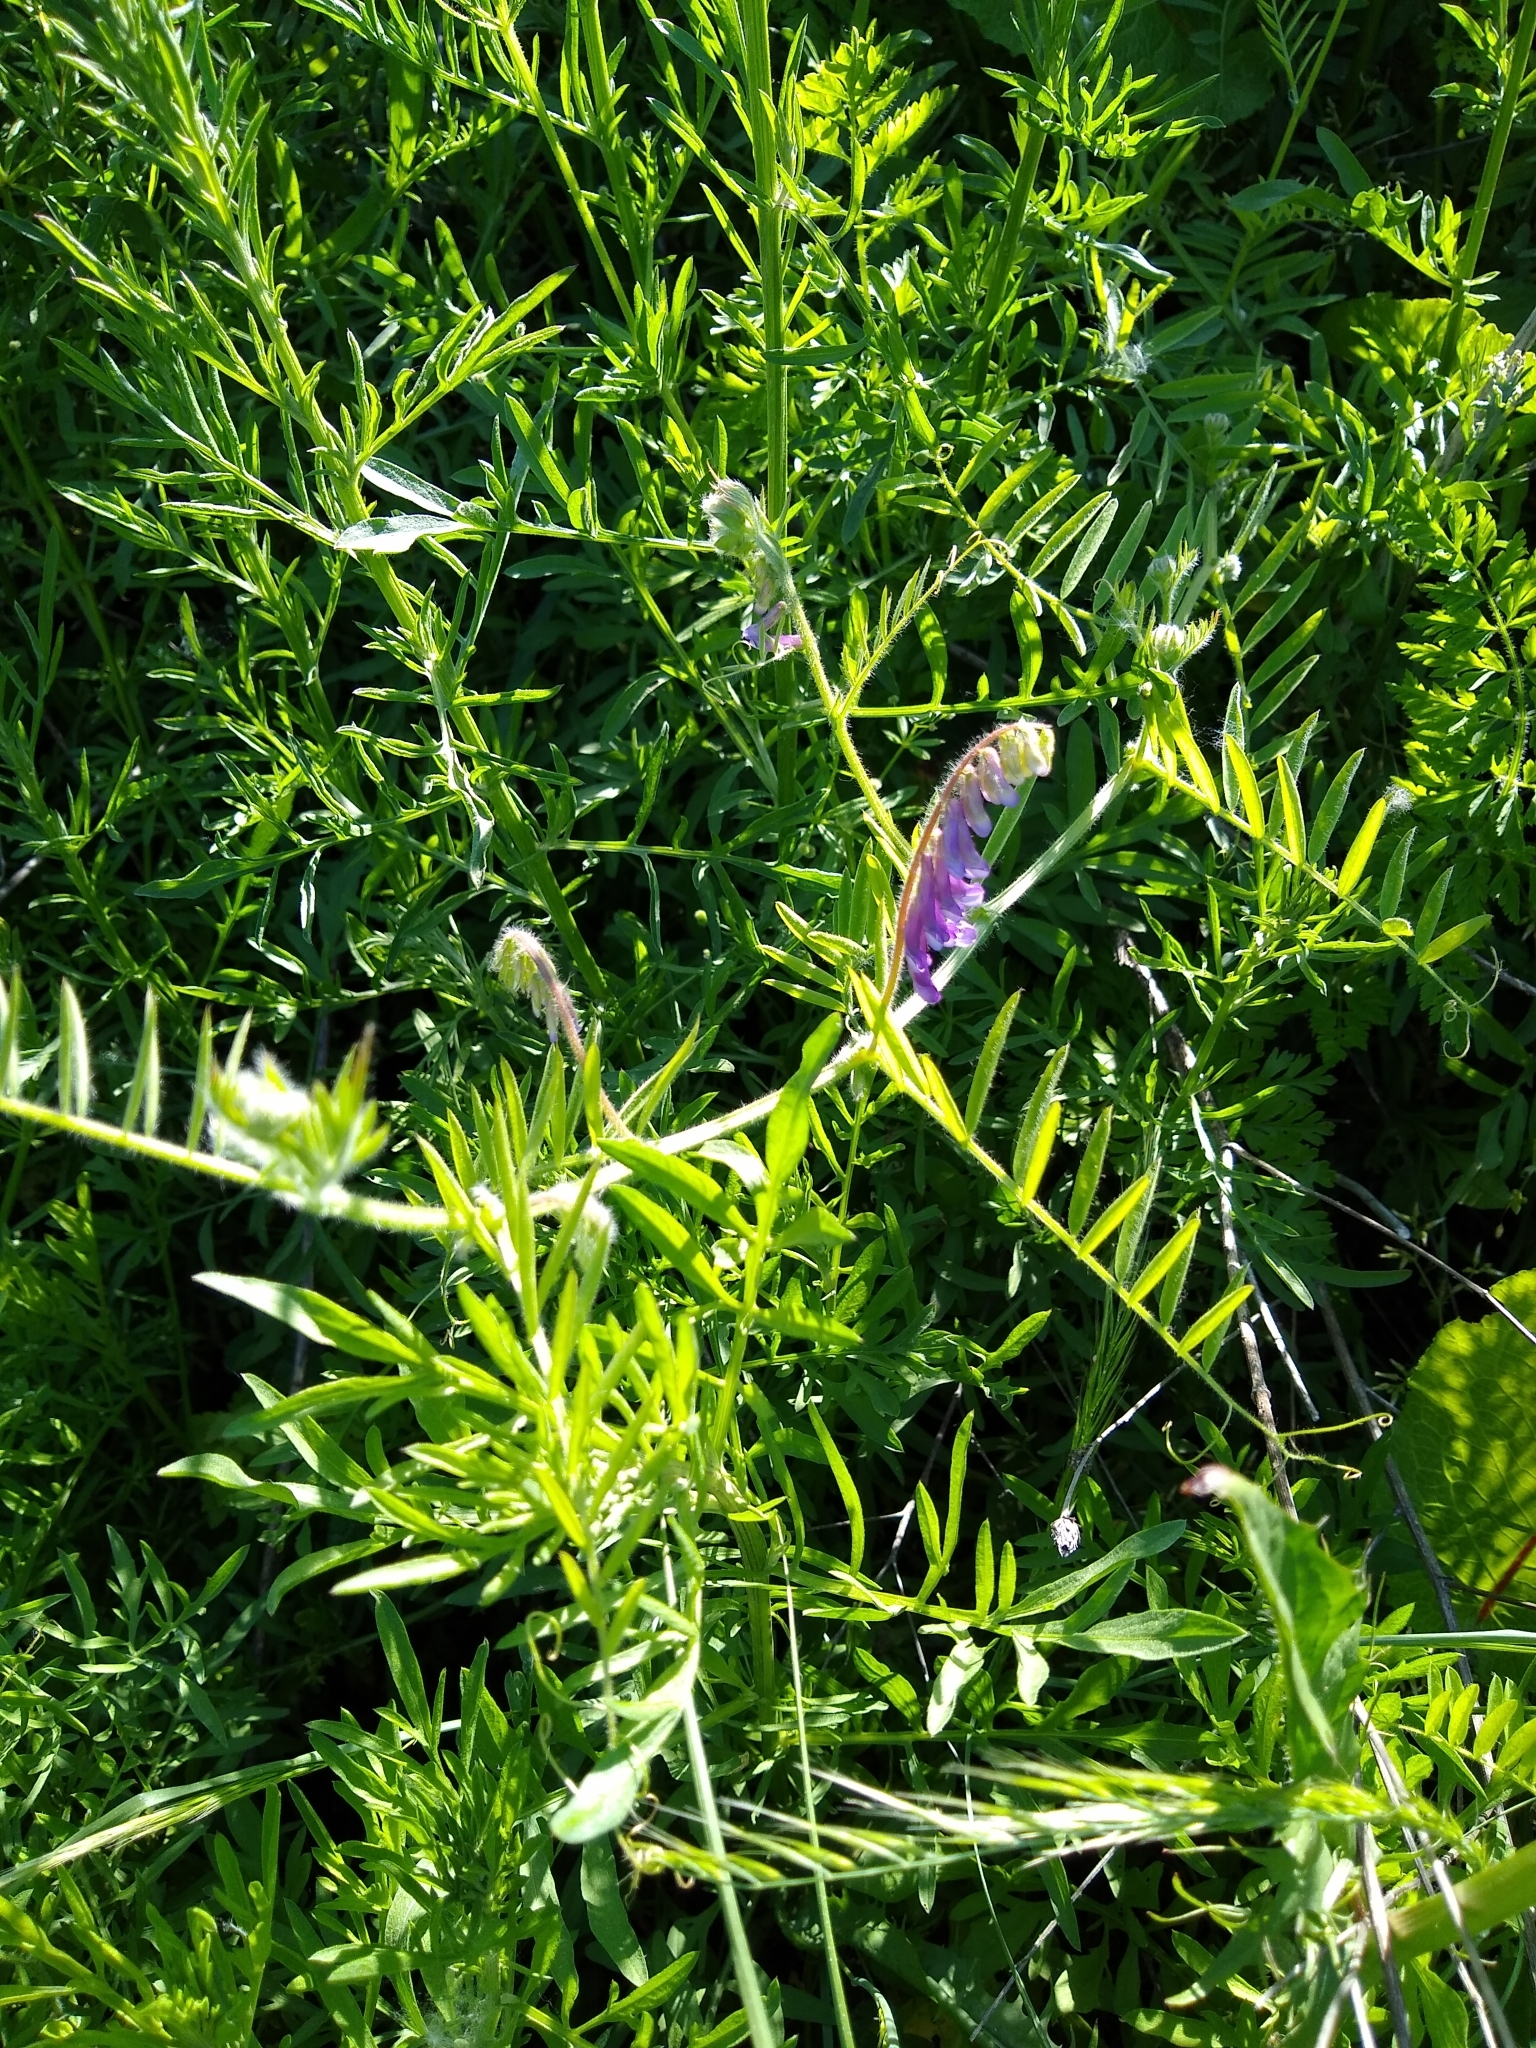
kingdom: Plantae
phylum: Tracheophyta
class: Magnoliopsida
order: Fabales
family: Fabaceae
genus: Vicia
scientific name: Vicia villosa
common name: Fodder vetch
